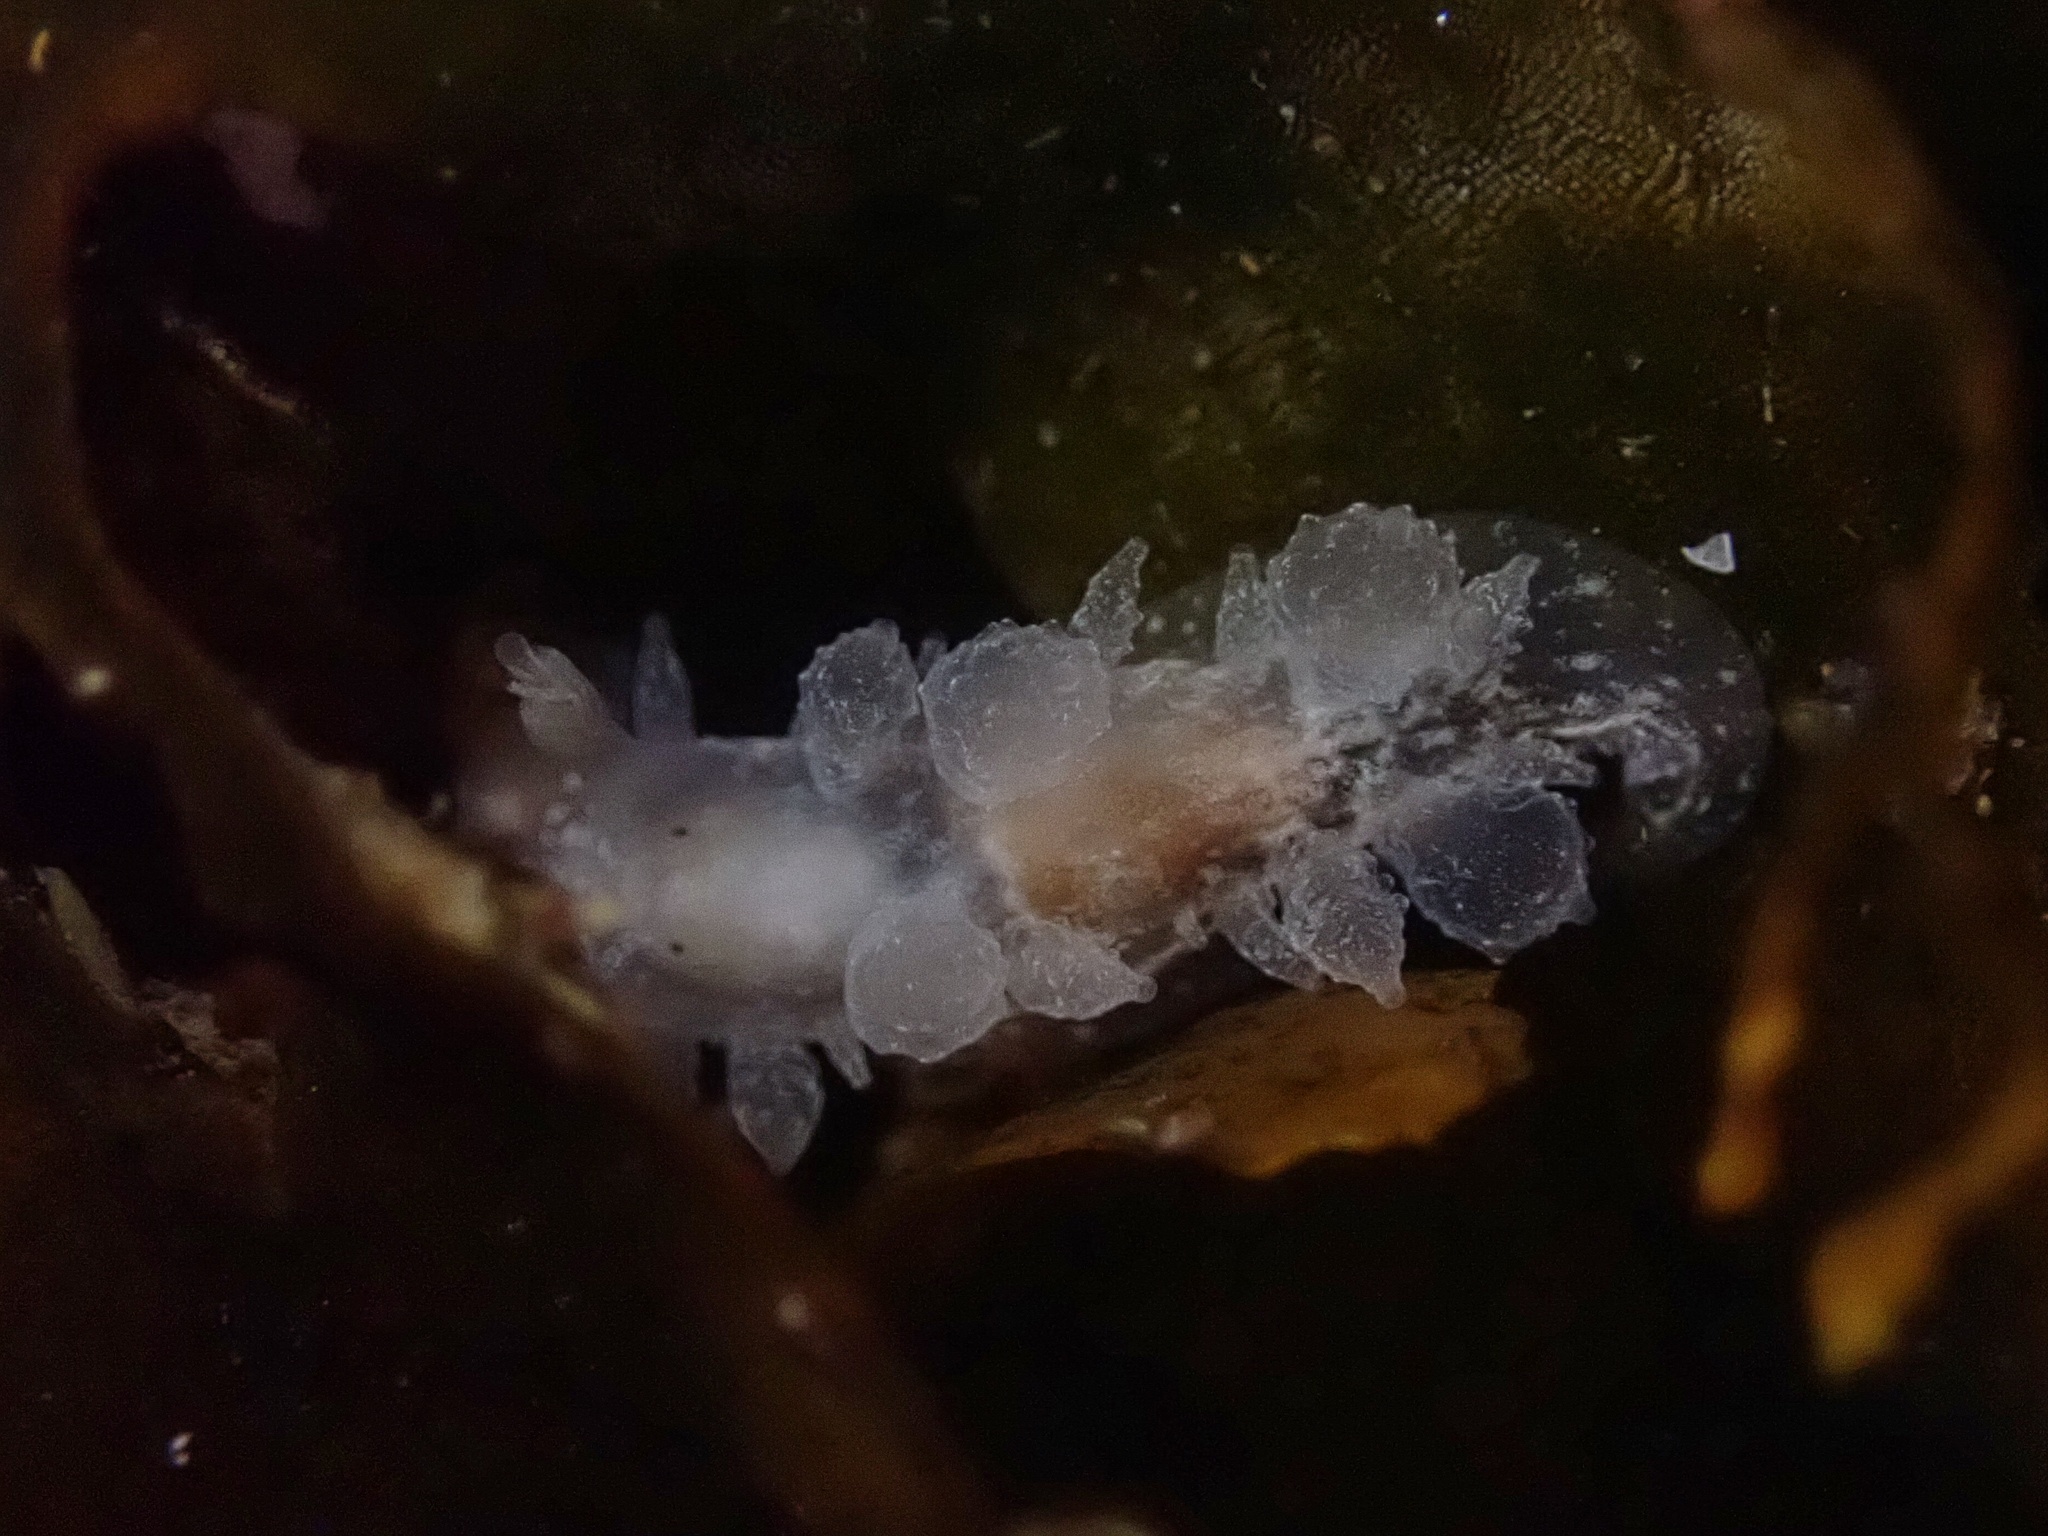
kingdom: Animalia
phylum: Mollusca
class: Gastropoda
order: Nudibranchia
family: Dironidae
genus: Dirona
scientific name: Dirona picta
